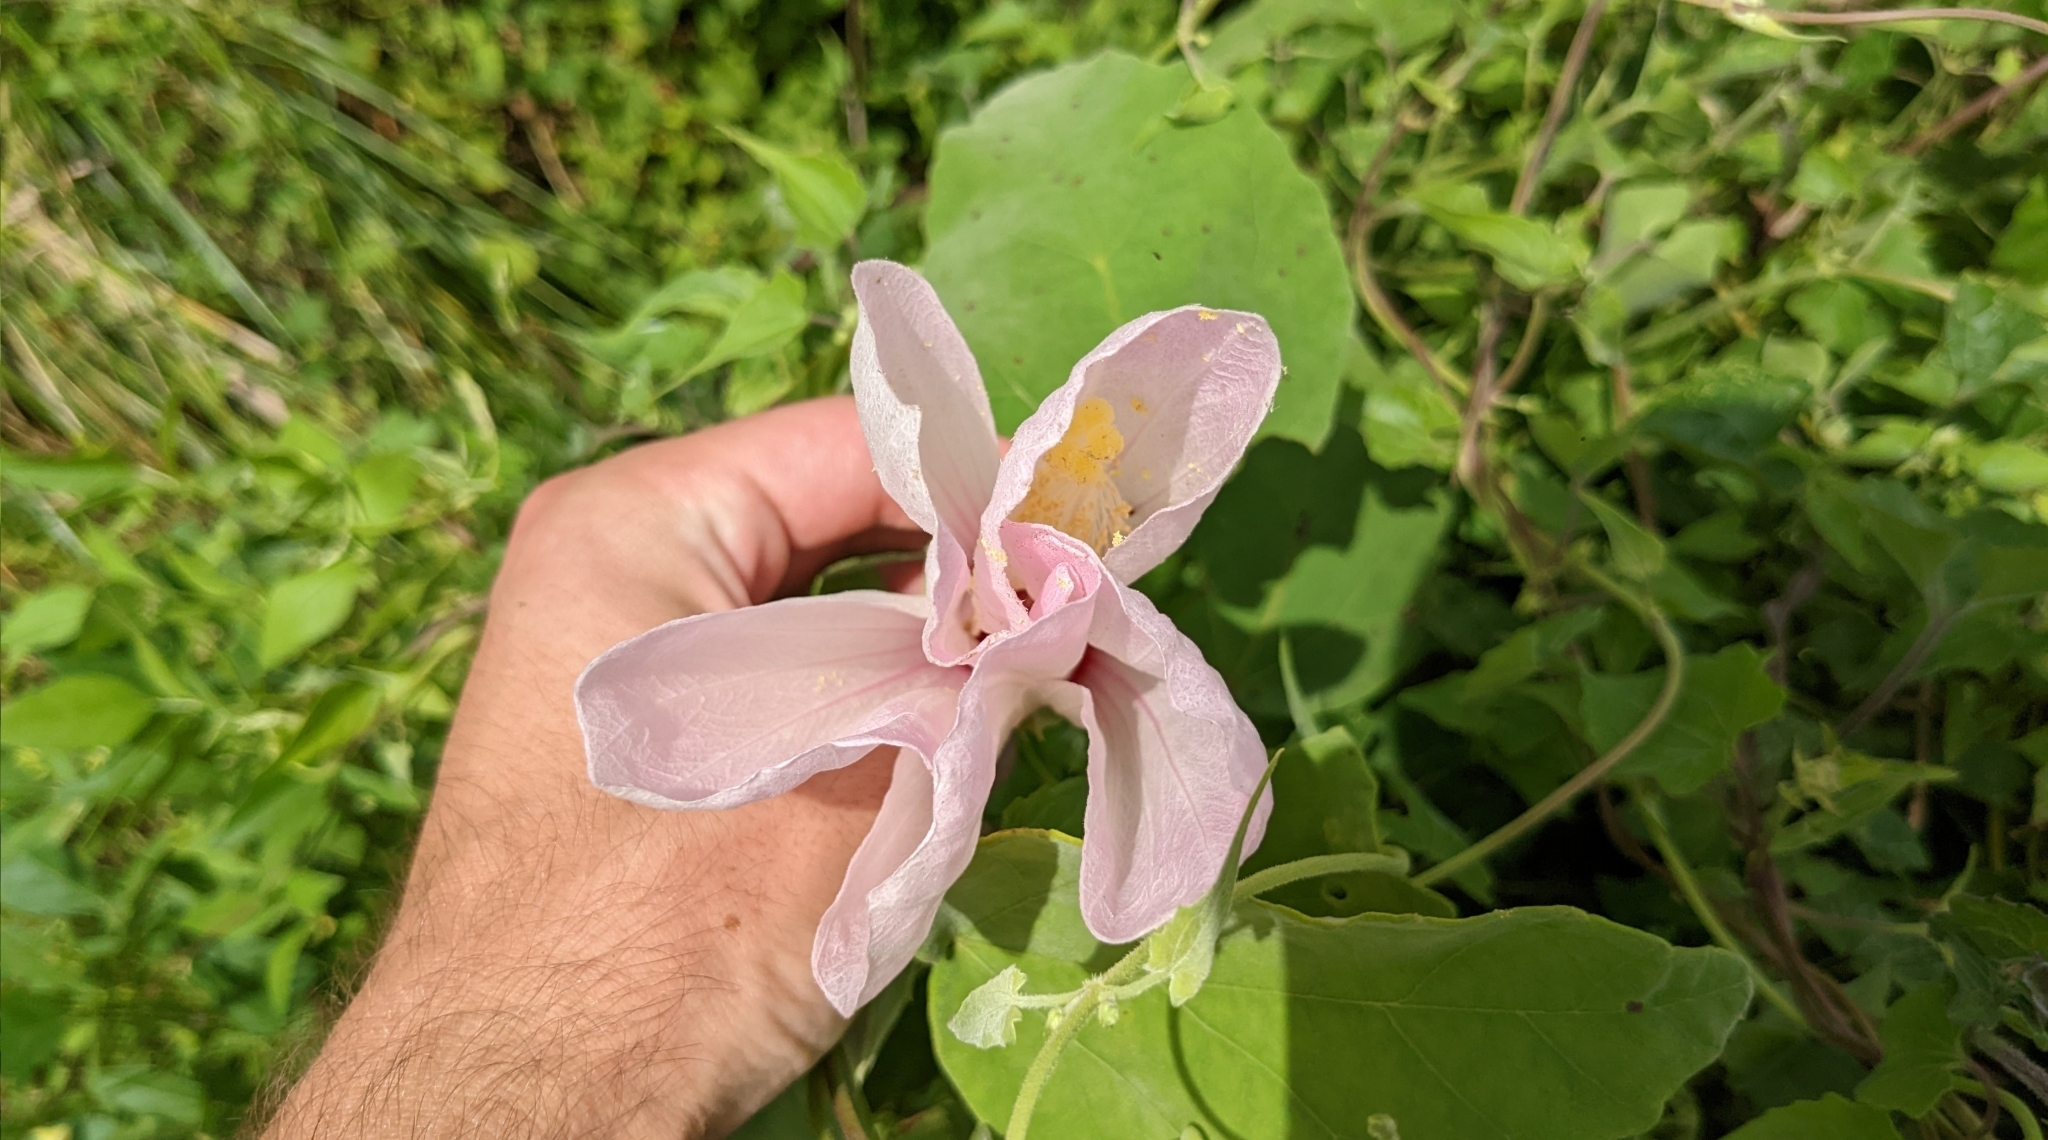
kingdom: Plantae
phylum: Tracheophyta
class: Magnoliopsida
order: Malvales
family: Malvaceae
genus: Hibiscus
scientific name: Hibiscus grandiflorus
